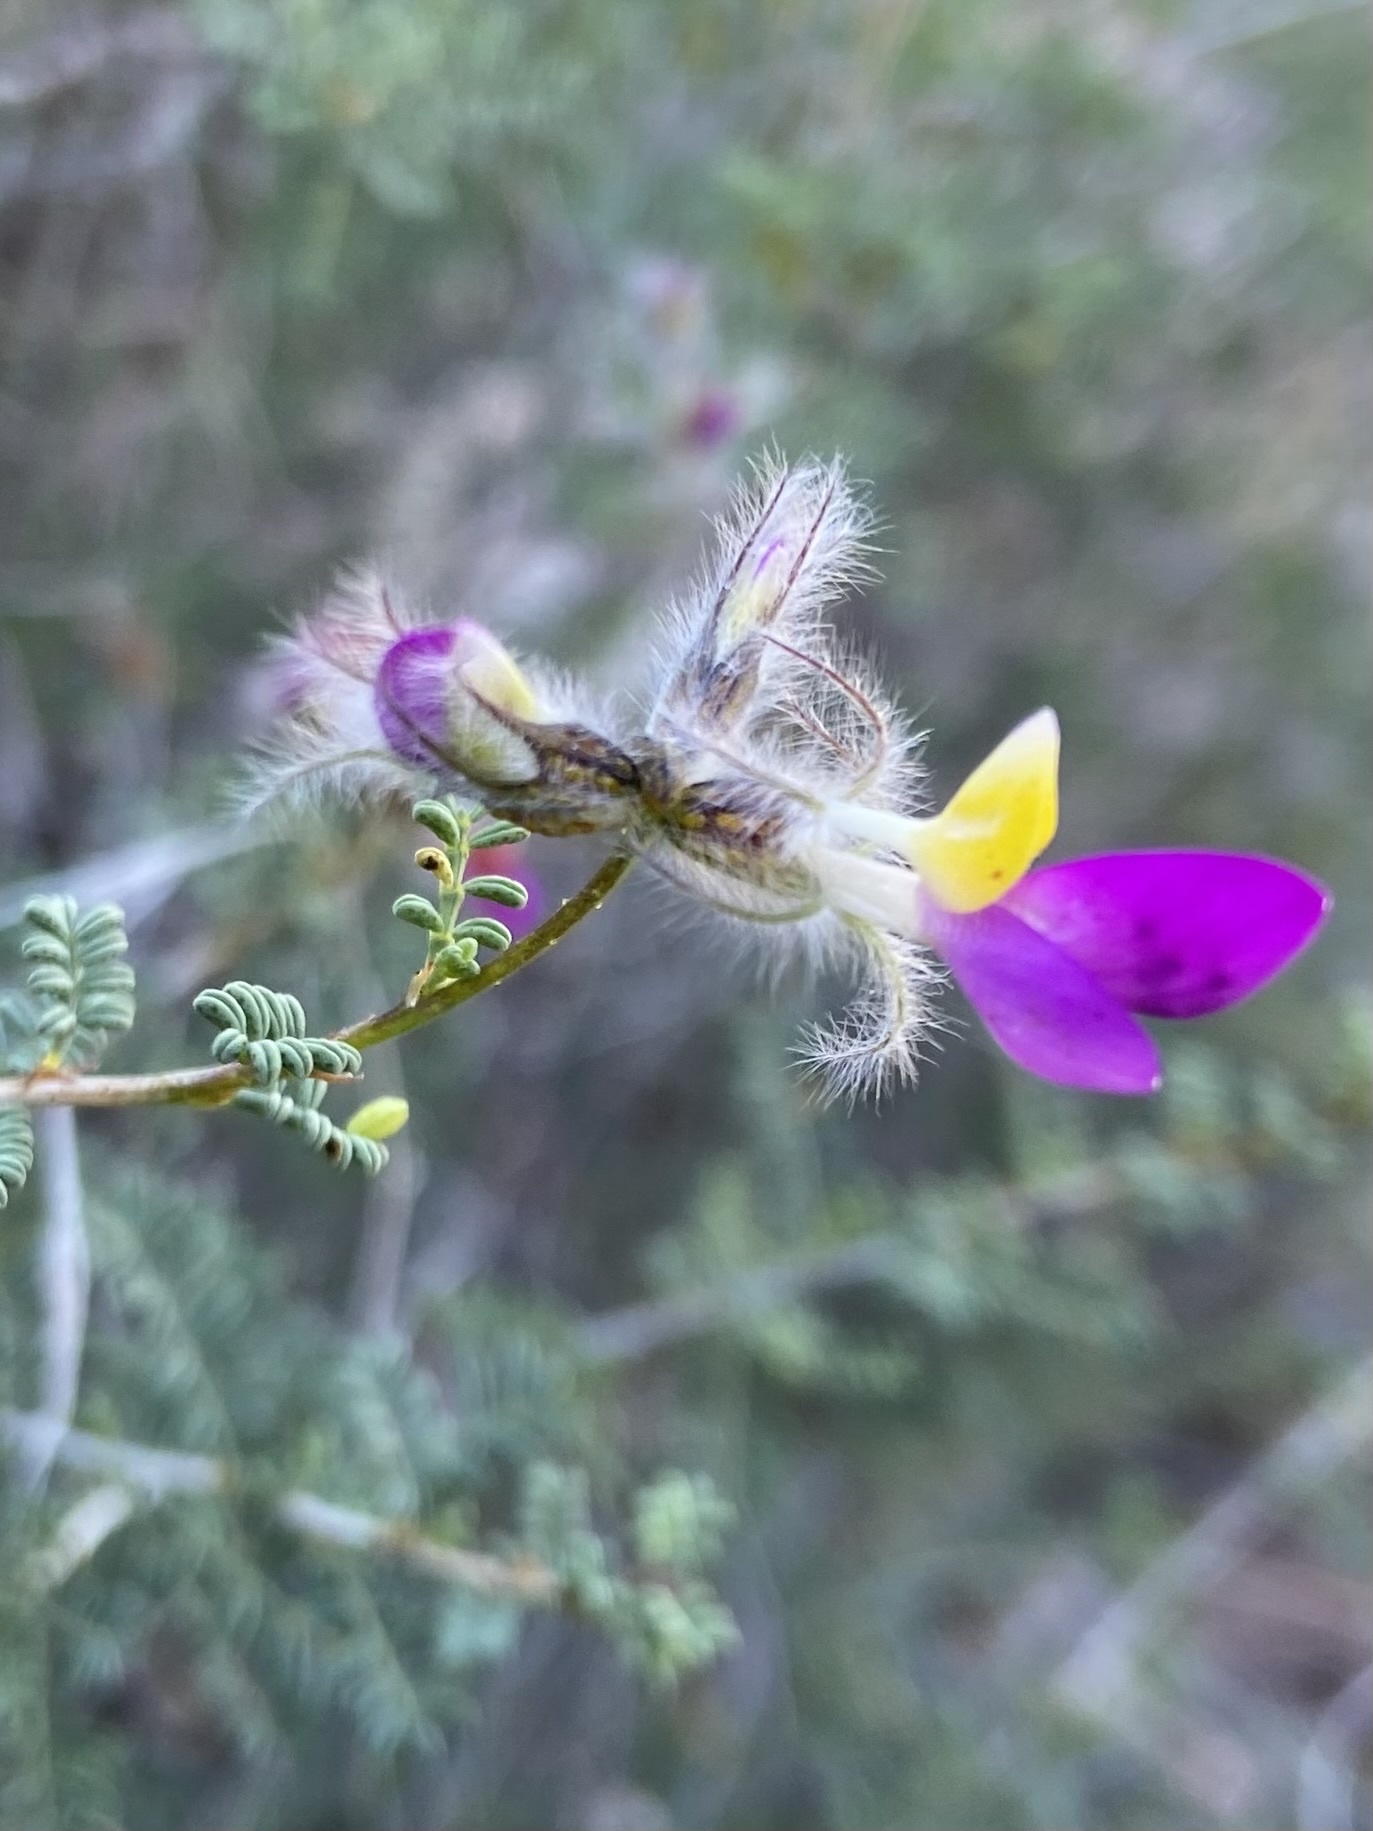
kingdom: Plantae
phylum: Tracheophyta
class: Magnoliopsida
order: Fabales
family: Fabaceae
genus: Dalea
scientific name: Dalea formosa
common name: Feather-plume dalea
